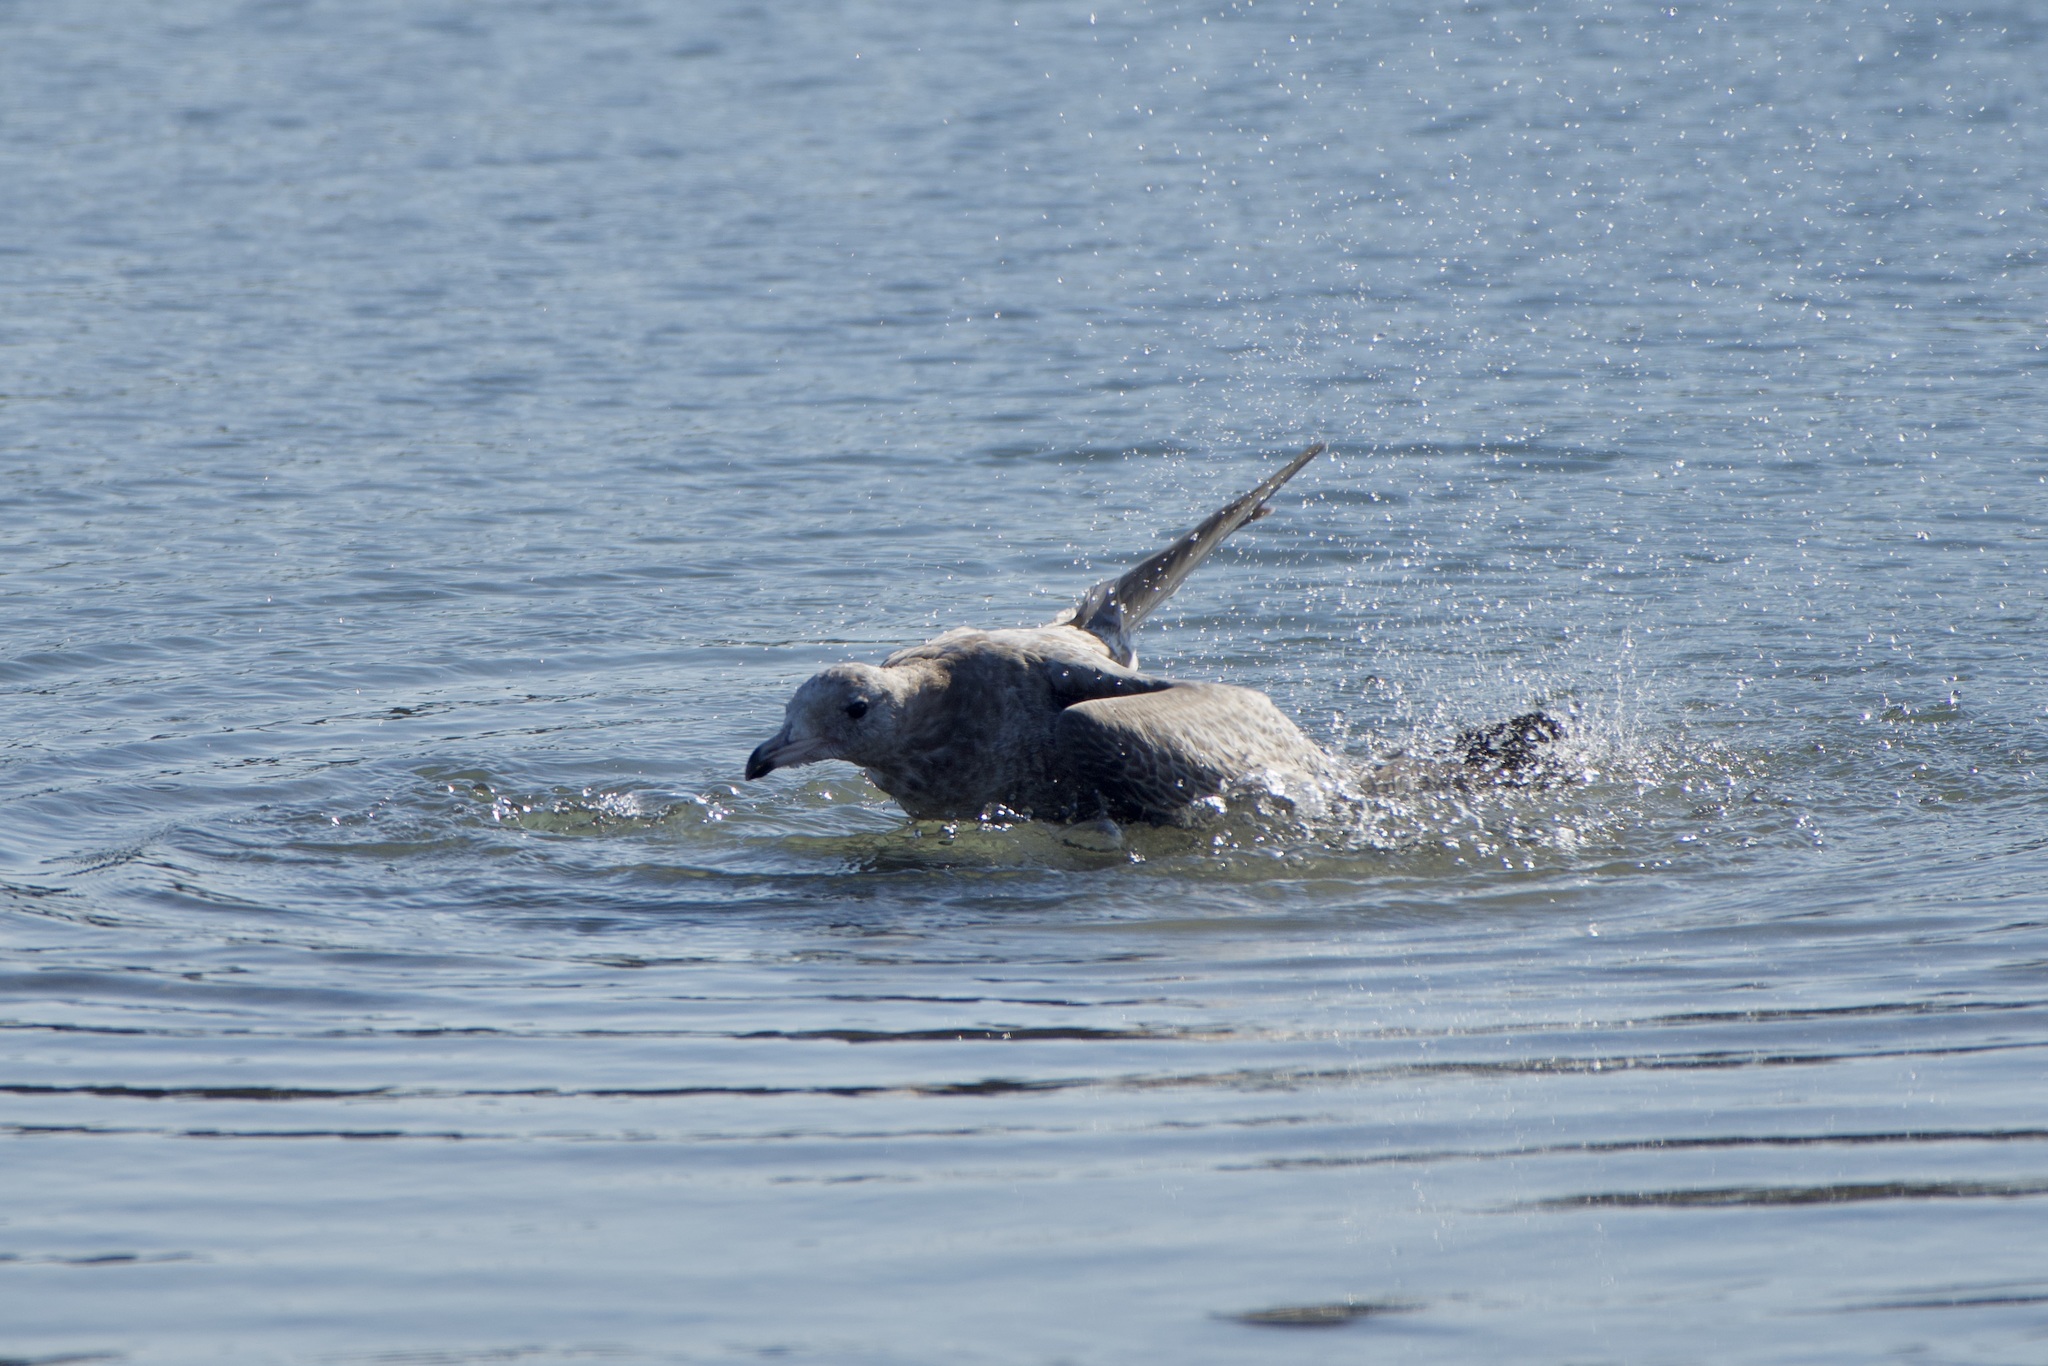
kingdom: Animalia
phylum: Chordata
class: Aves
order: Charadriiformes
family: Laridae
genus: Larus
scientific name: Larus californicus
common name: California gull
